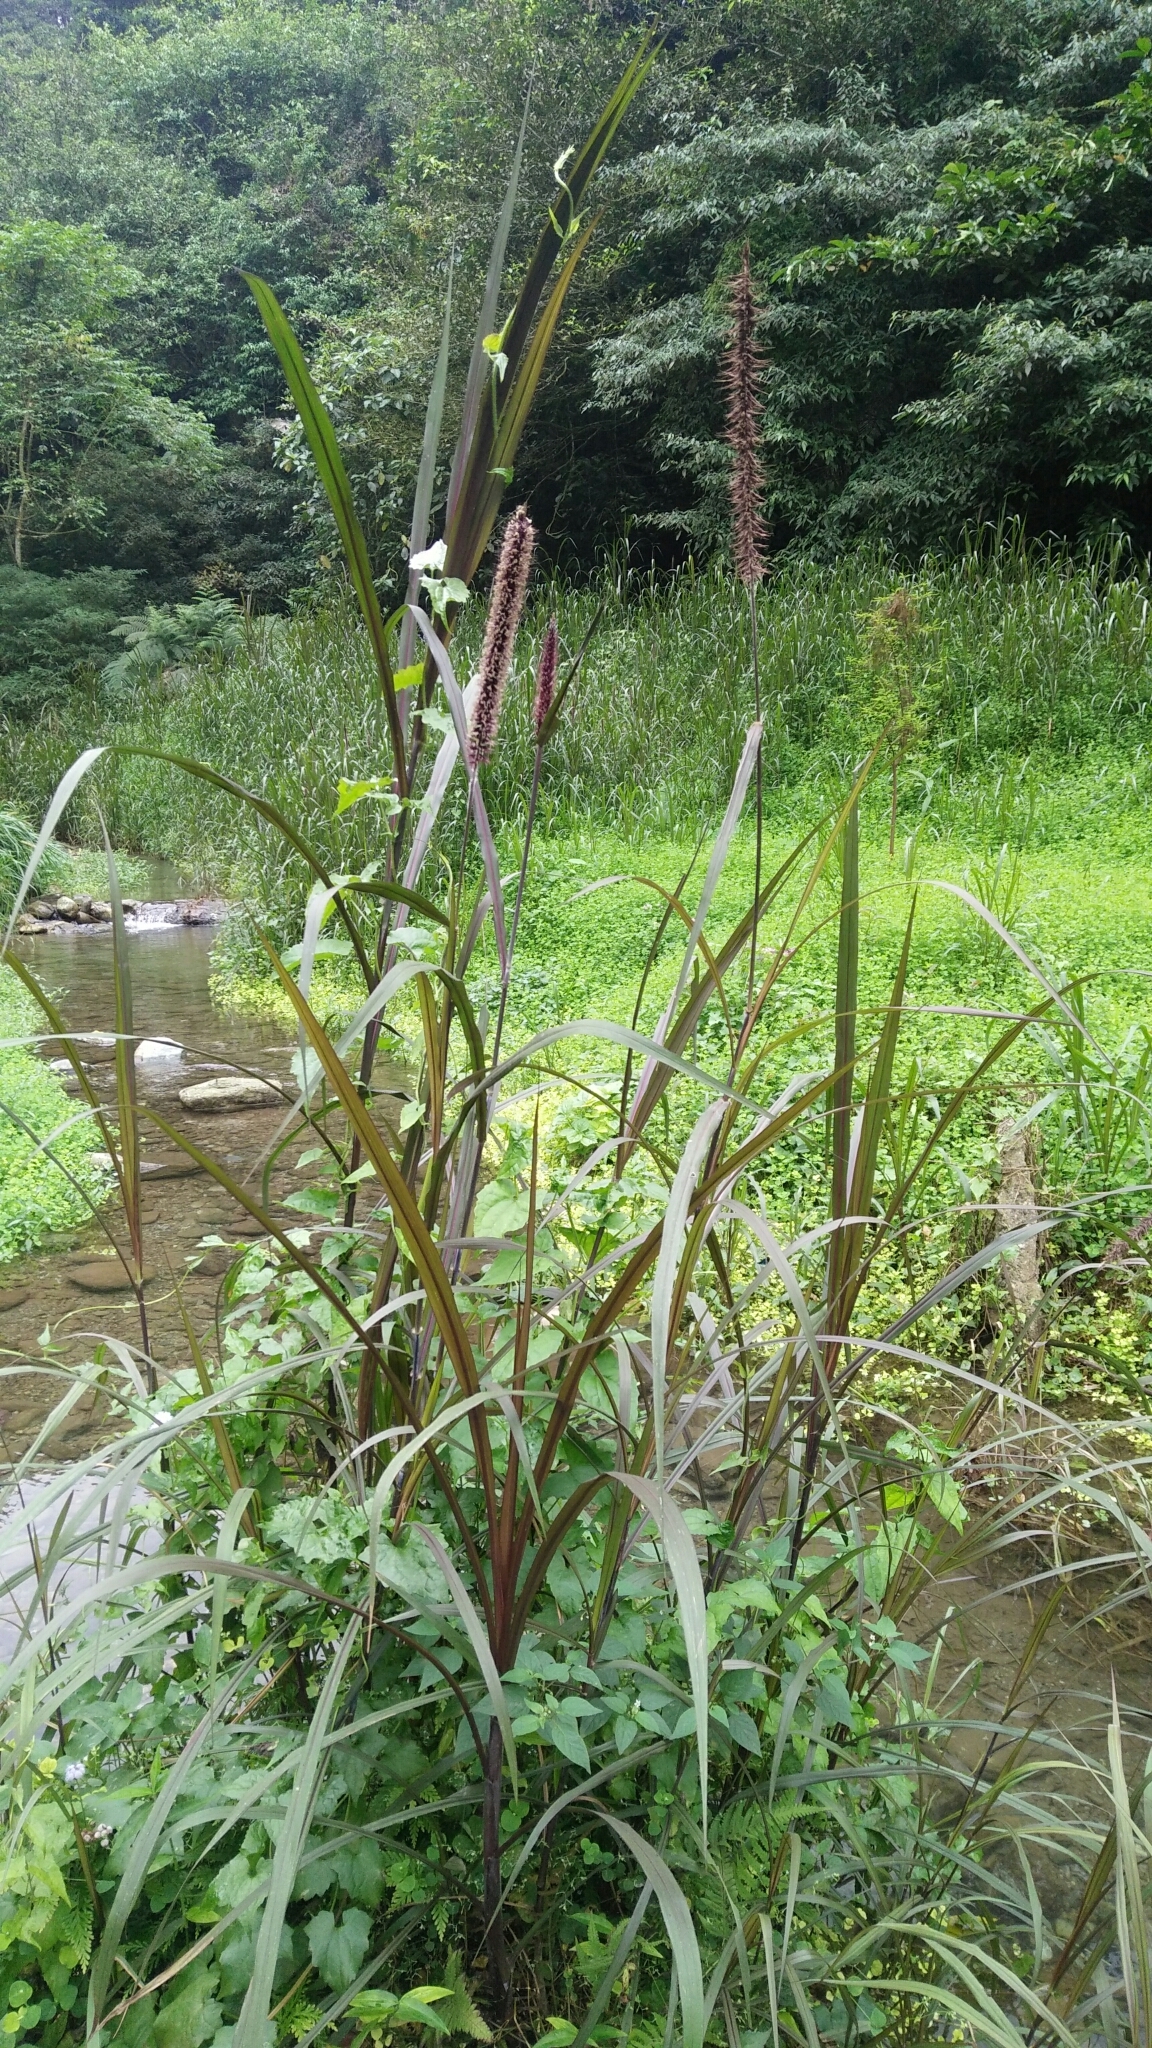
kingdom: Plantae
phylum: Tracheophyta
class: Liliopsida
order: Poales
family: Poaceae
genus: Cenchrus
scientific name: Cenchrus purpureus
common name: Elephant grass
